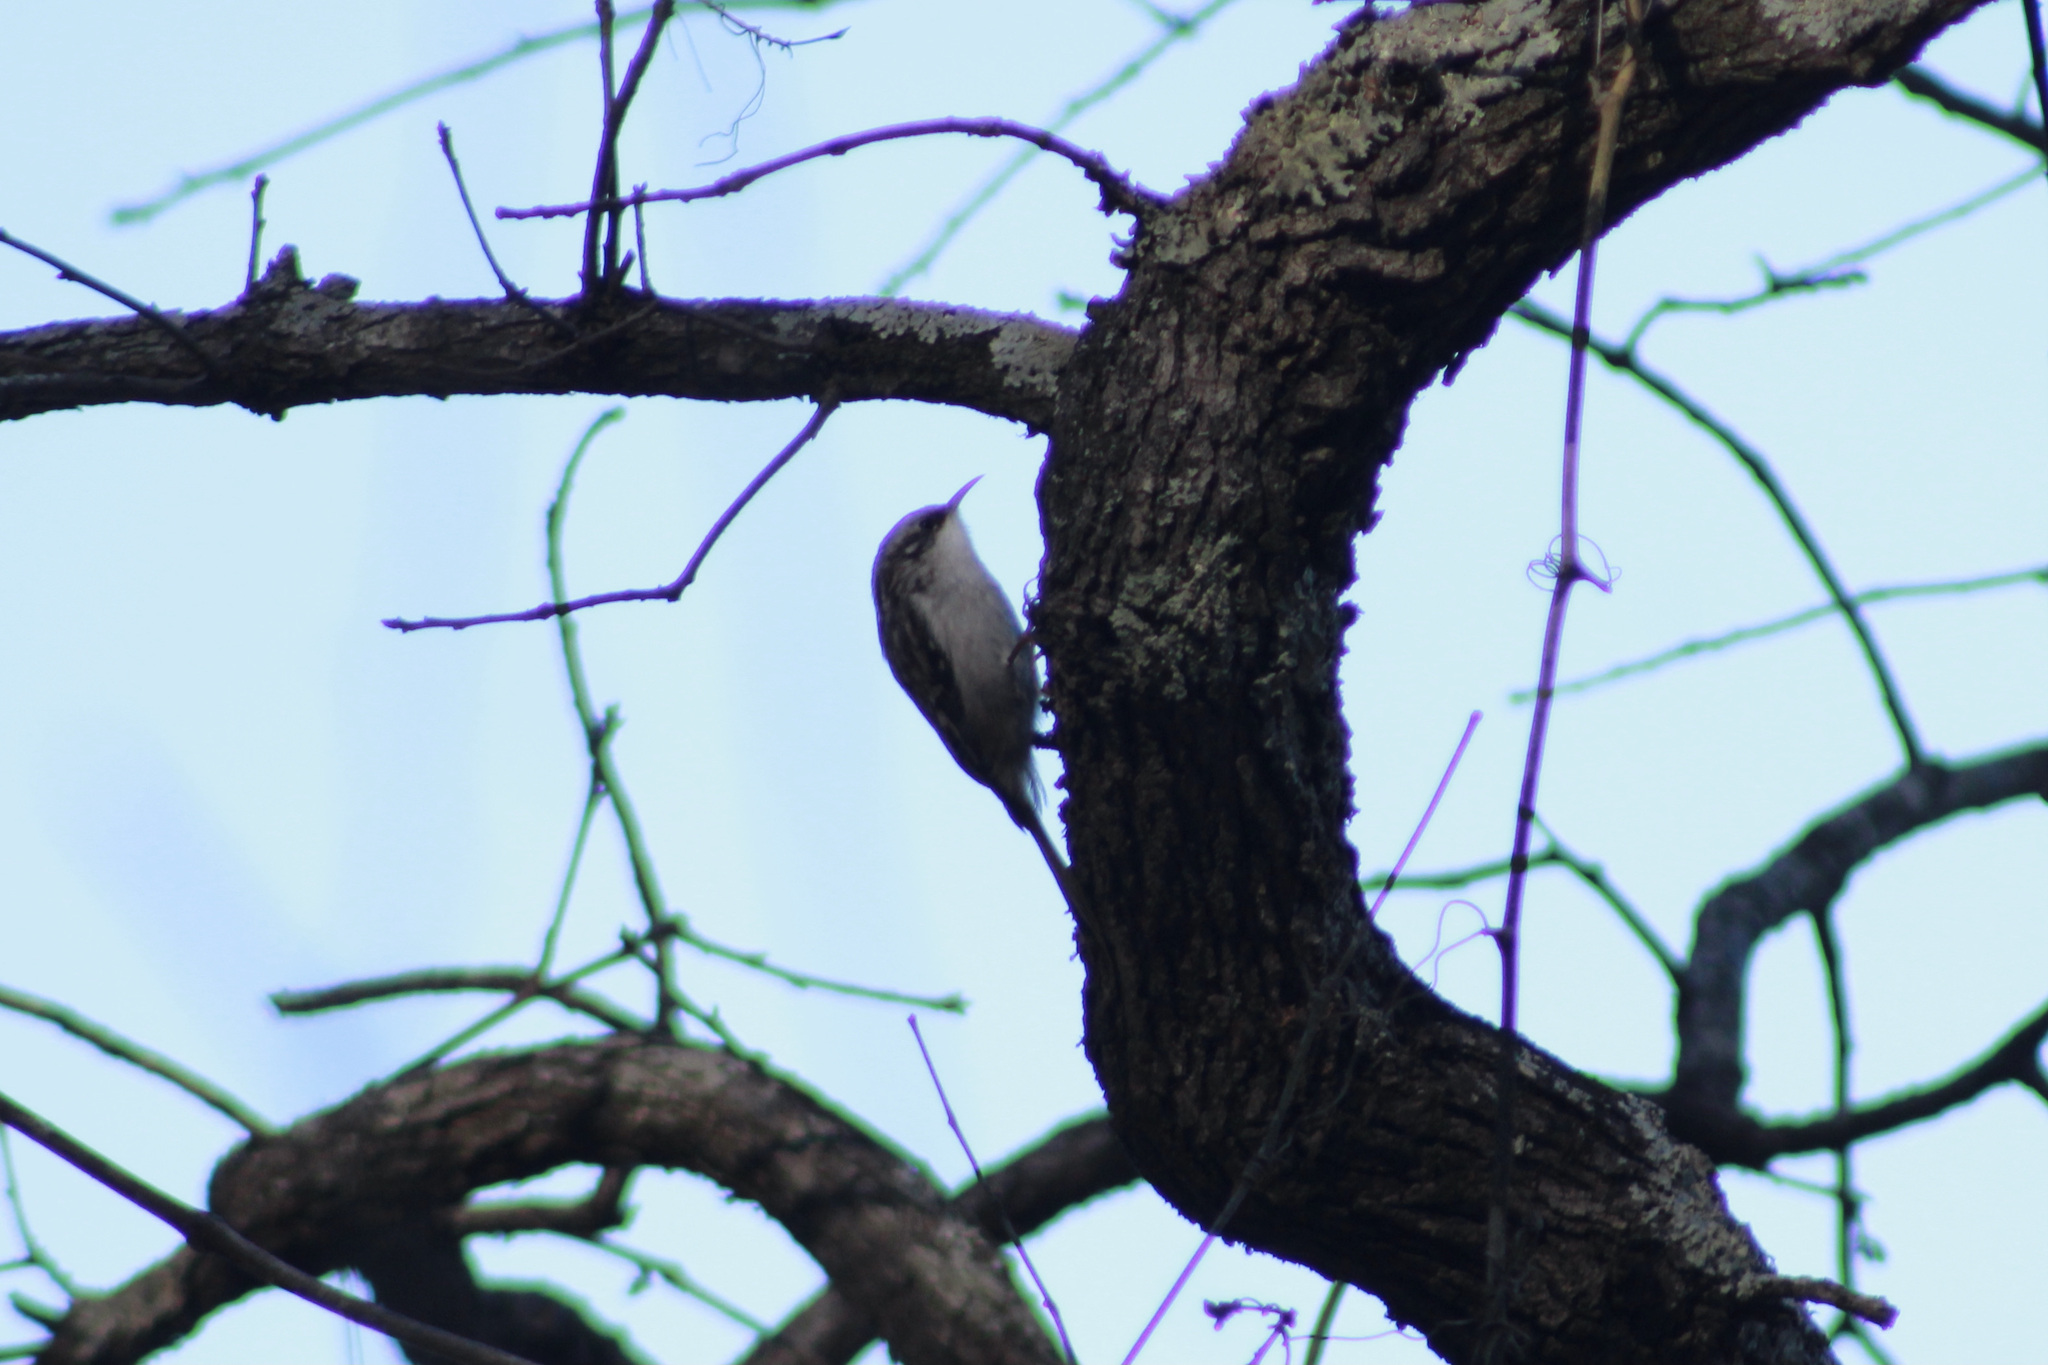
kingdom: Animalia
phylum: Chordata
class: Aves
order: Passeriformes
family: Certhiidae
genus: Certhia
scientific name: Certhia americana
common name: Brown creeper
